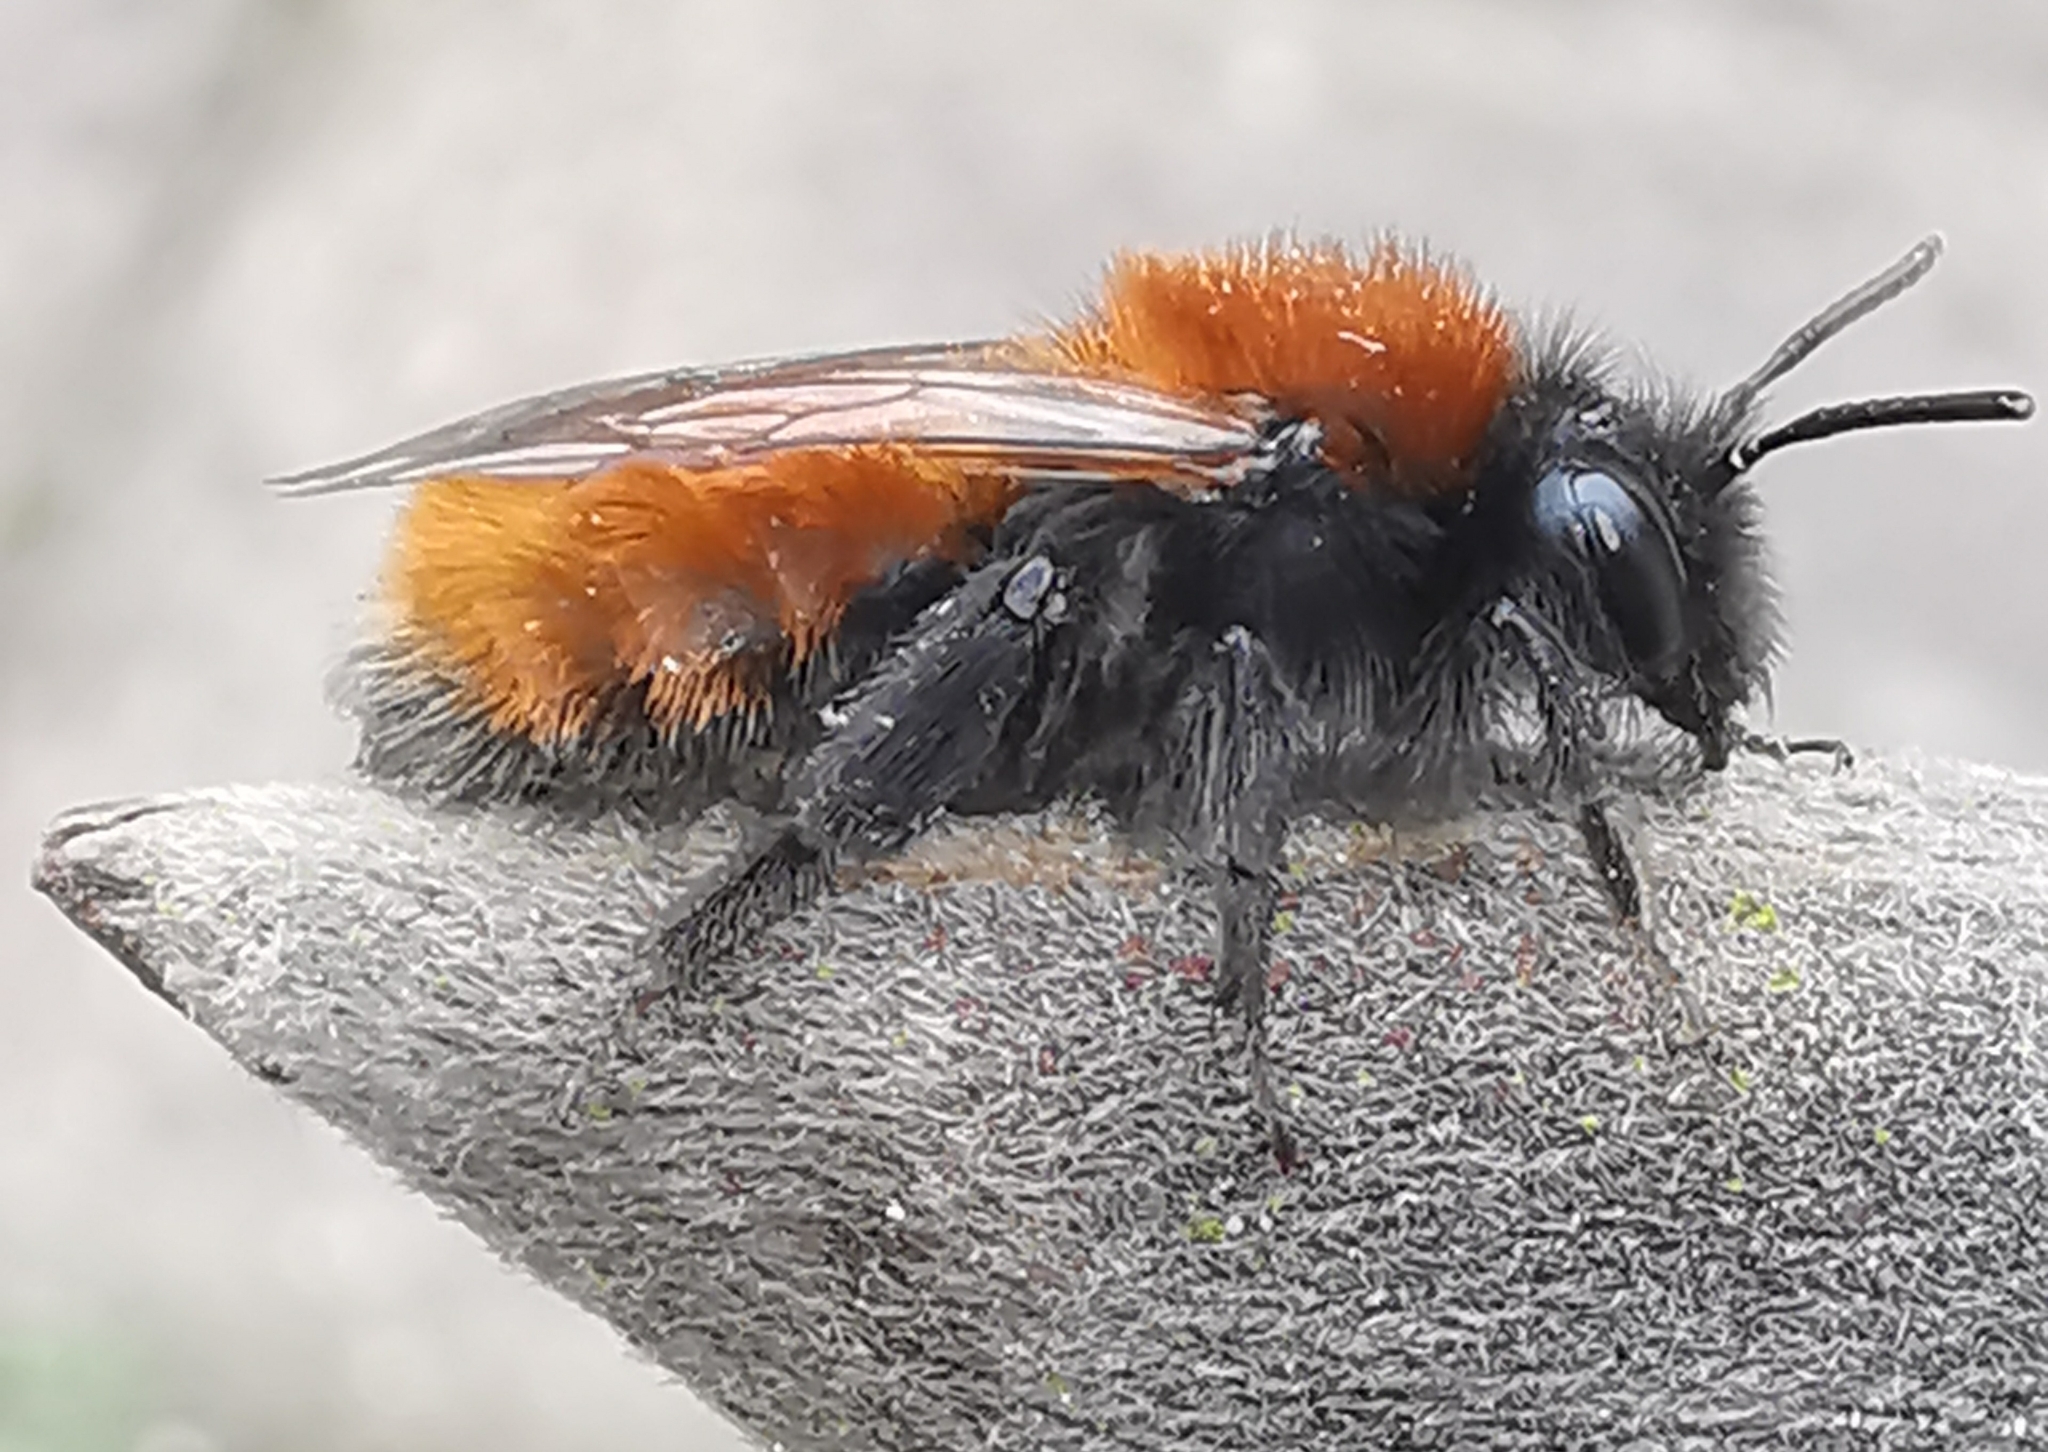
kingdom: Animalia
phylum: Arthropoda
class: Insecta
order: Hymenoptera
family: Andrenidae
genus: Andrena
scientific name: Andrena fulva
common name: Tawny mining bee
